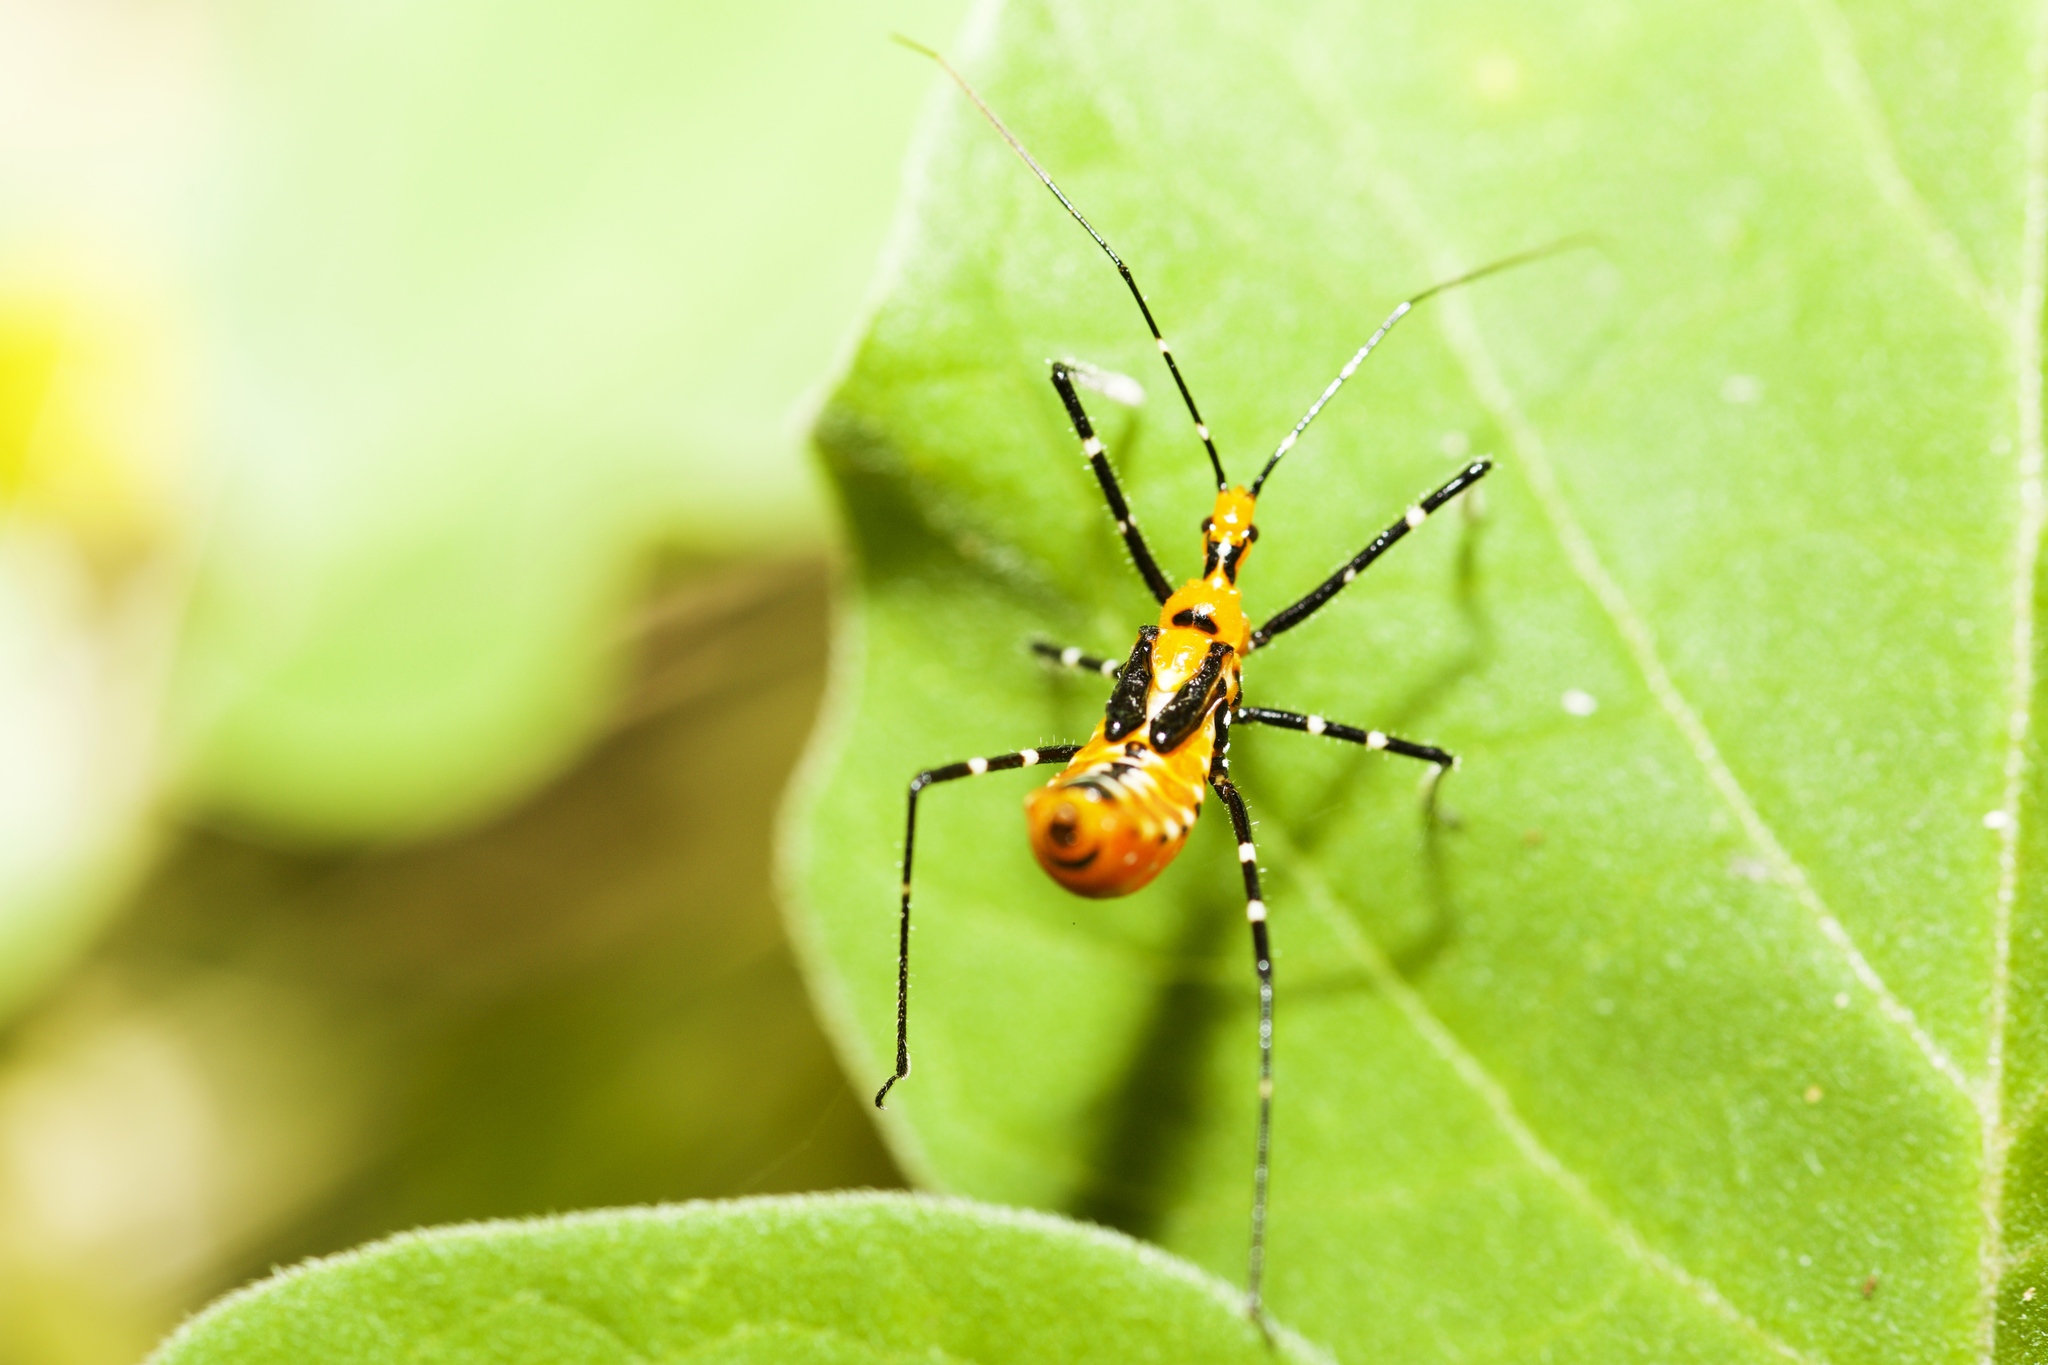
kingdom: Animalia
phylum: Arthropoda
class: Insecta
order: Hemiptera
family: Reduviidae
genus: Zelus
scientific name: Zelus
